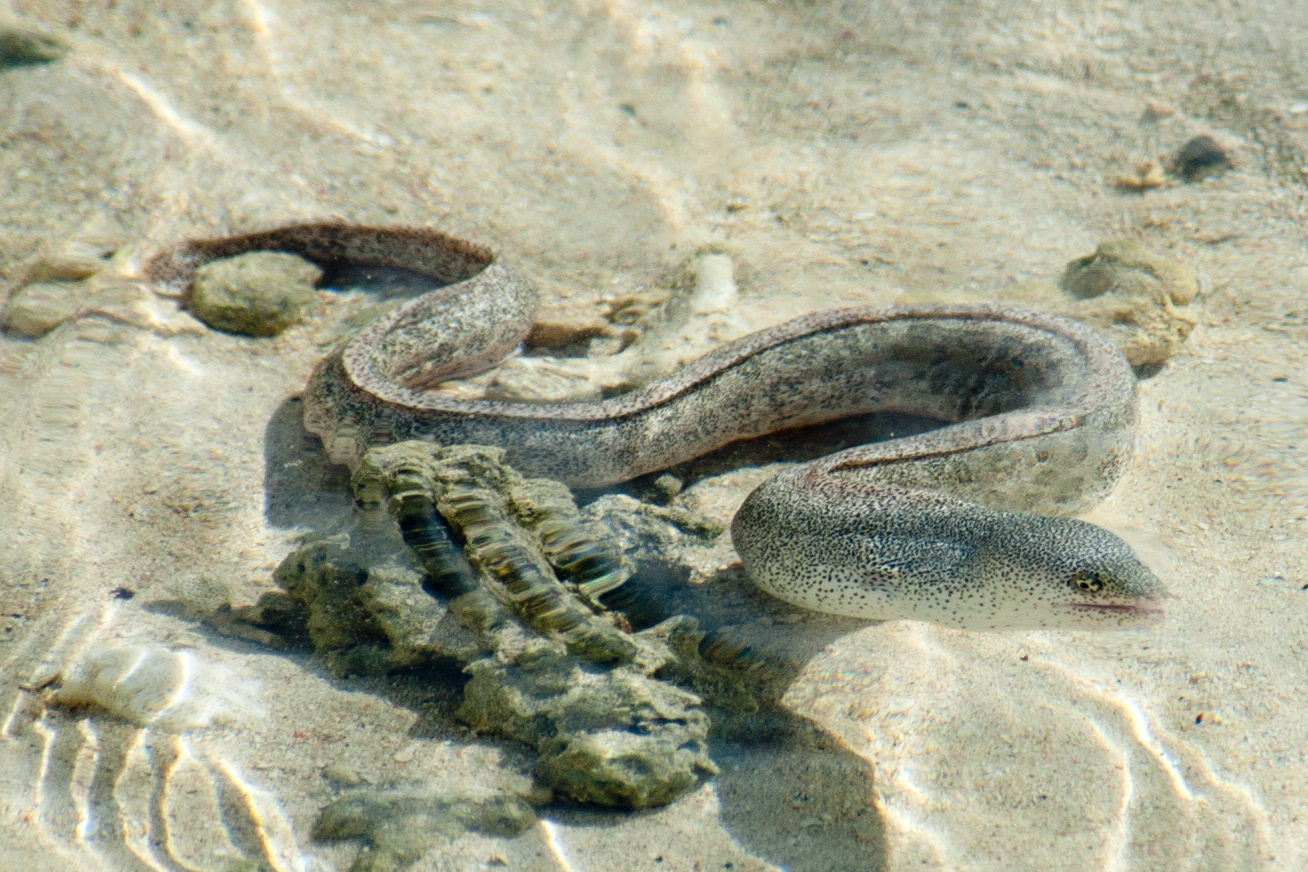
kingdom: Animalia
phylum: Chordata
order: Anguilliformes
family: Muraenidae
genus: Gymnothorax
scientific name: Gymnothorax pictus
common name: Peppered moray
